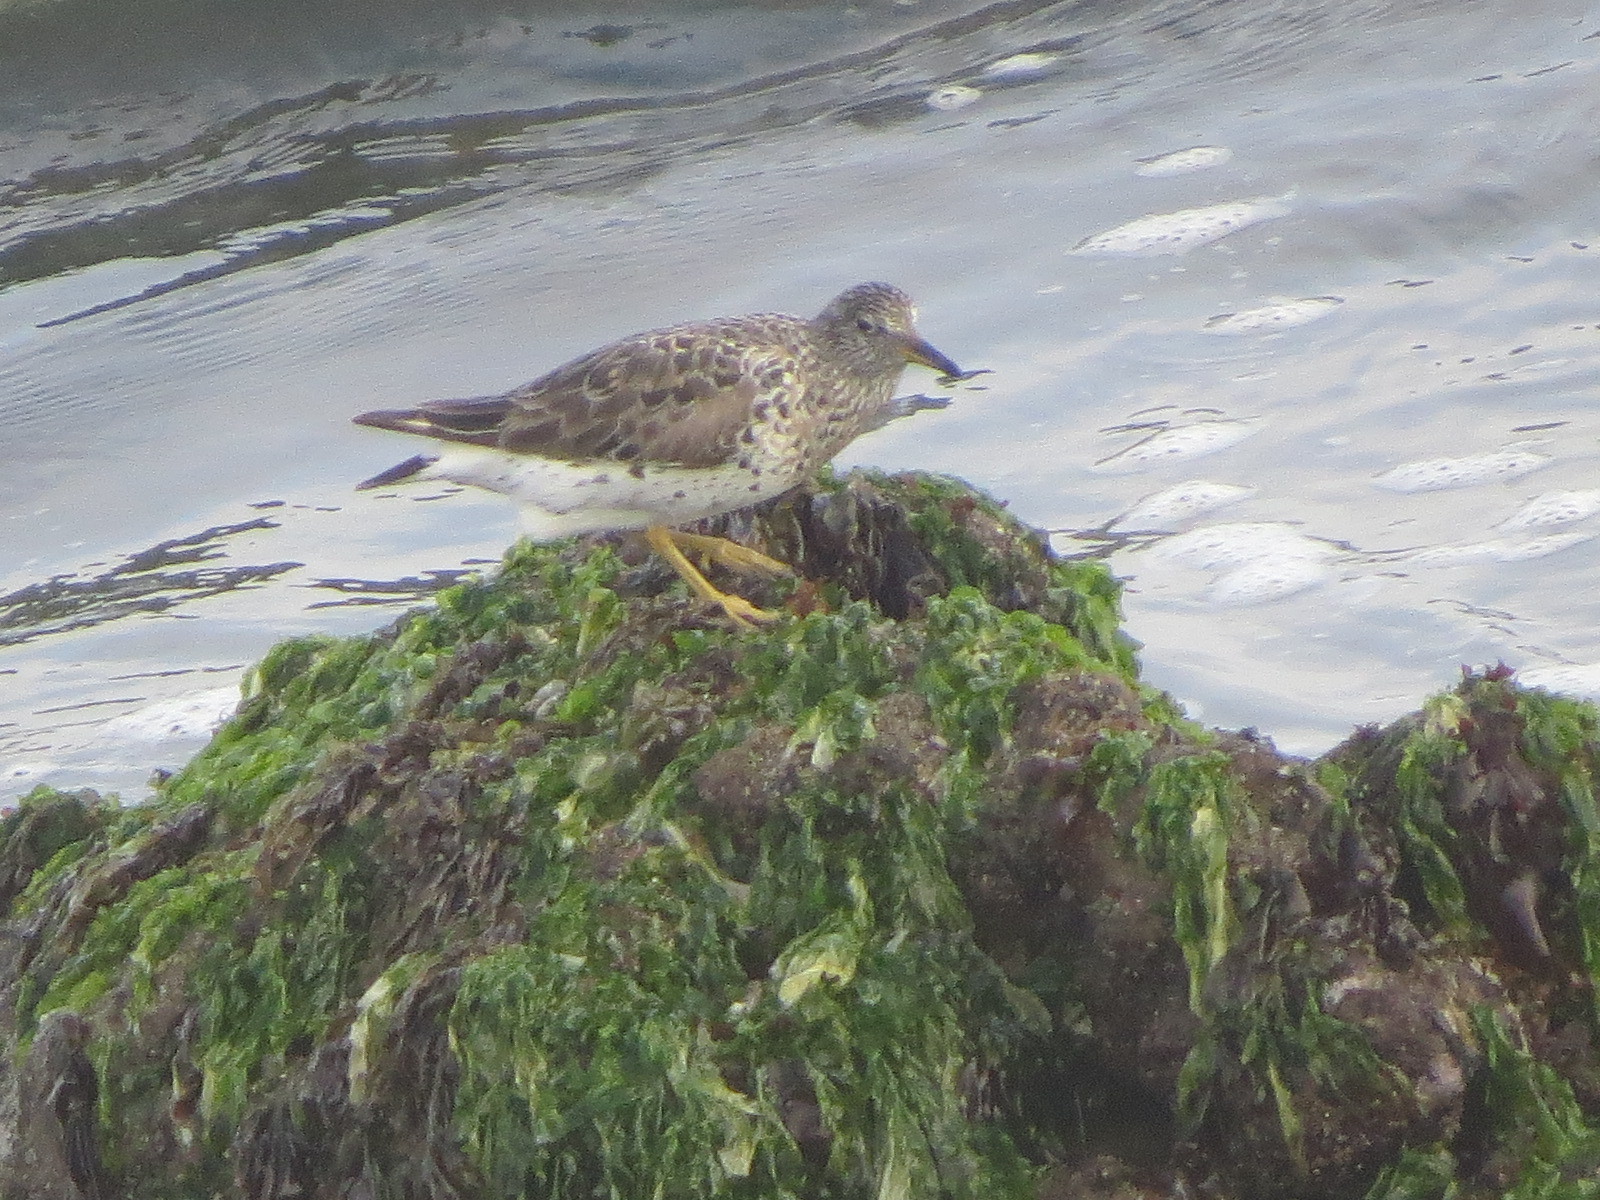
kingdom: Animalia
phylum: Chordata
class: Aves
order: Charadriiformes
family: Scolopacidae
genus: Calidris
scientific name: Calidris virgata
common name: Surfbird
